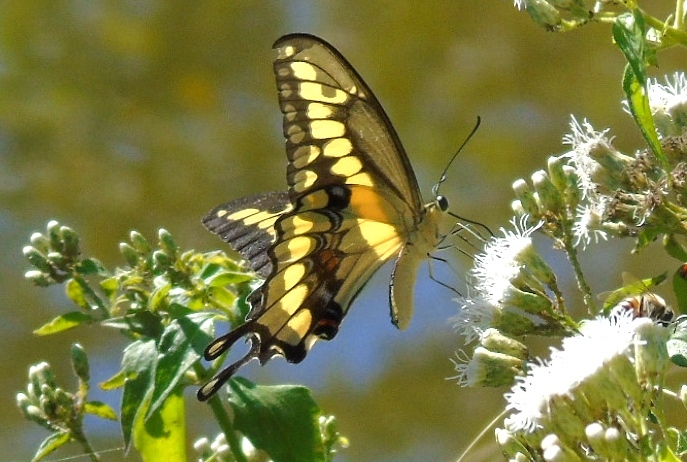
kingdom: Animalia
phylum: Arthropoda
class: Insecta
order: Lepidoptera
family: Papilionidae
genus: Papilio
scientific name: Papilio rumiko
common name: Western giant swallowtail
